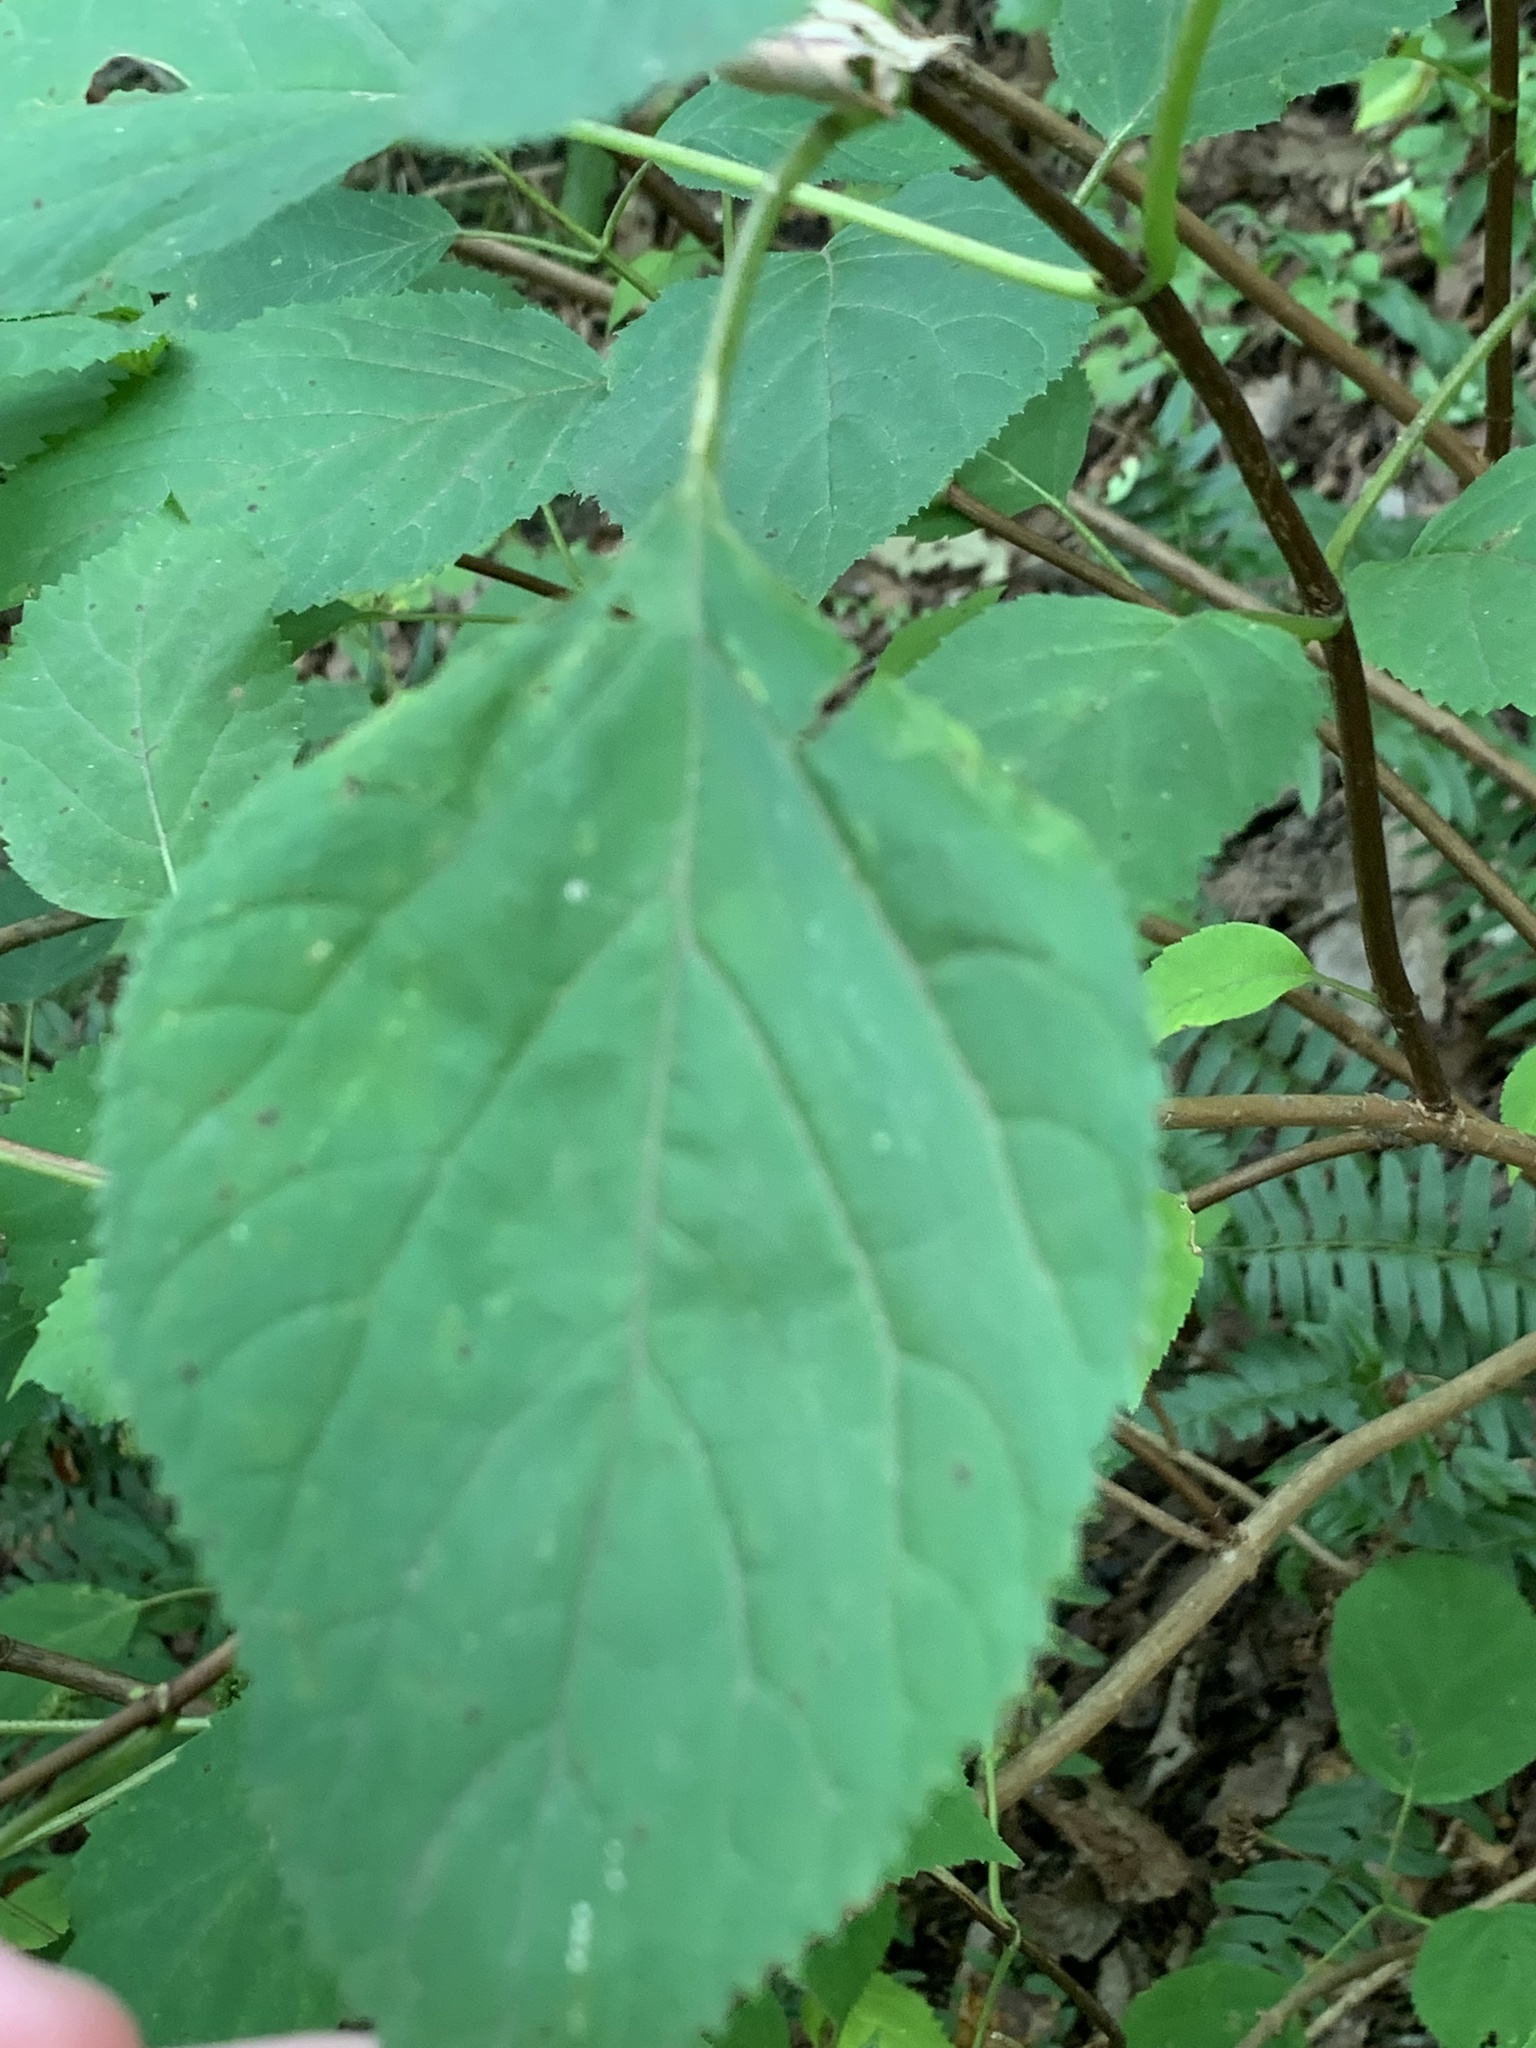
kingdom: Plantae
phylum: Tracheophyta
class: Magnoliopsida
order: Cornales
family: Hydrangeaceae
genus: Hydrangea
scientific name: Hydrangea arborescens
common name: Sevenbark
